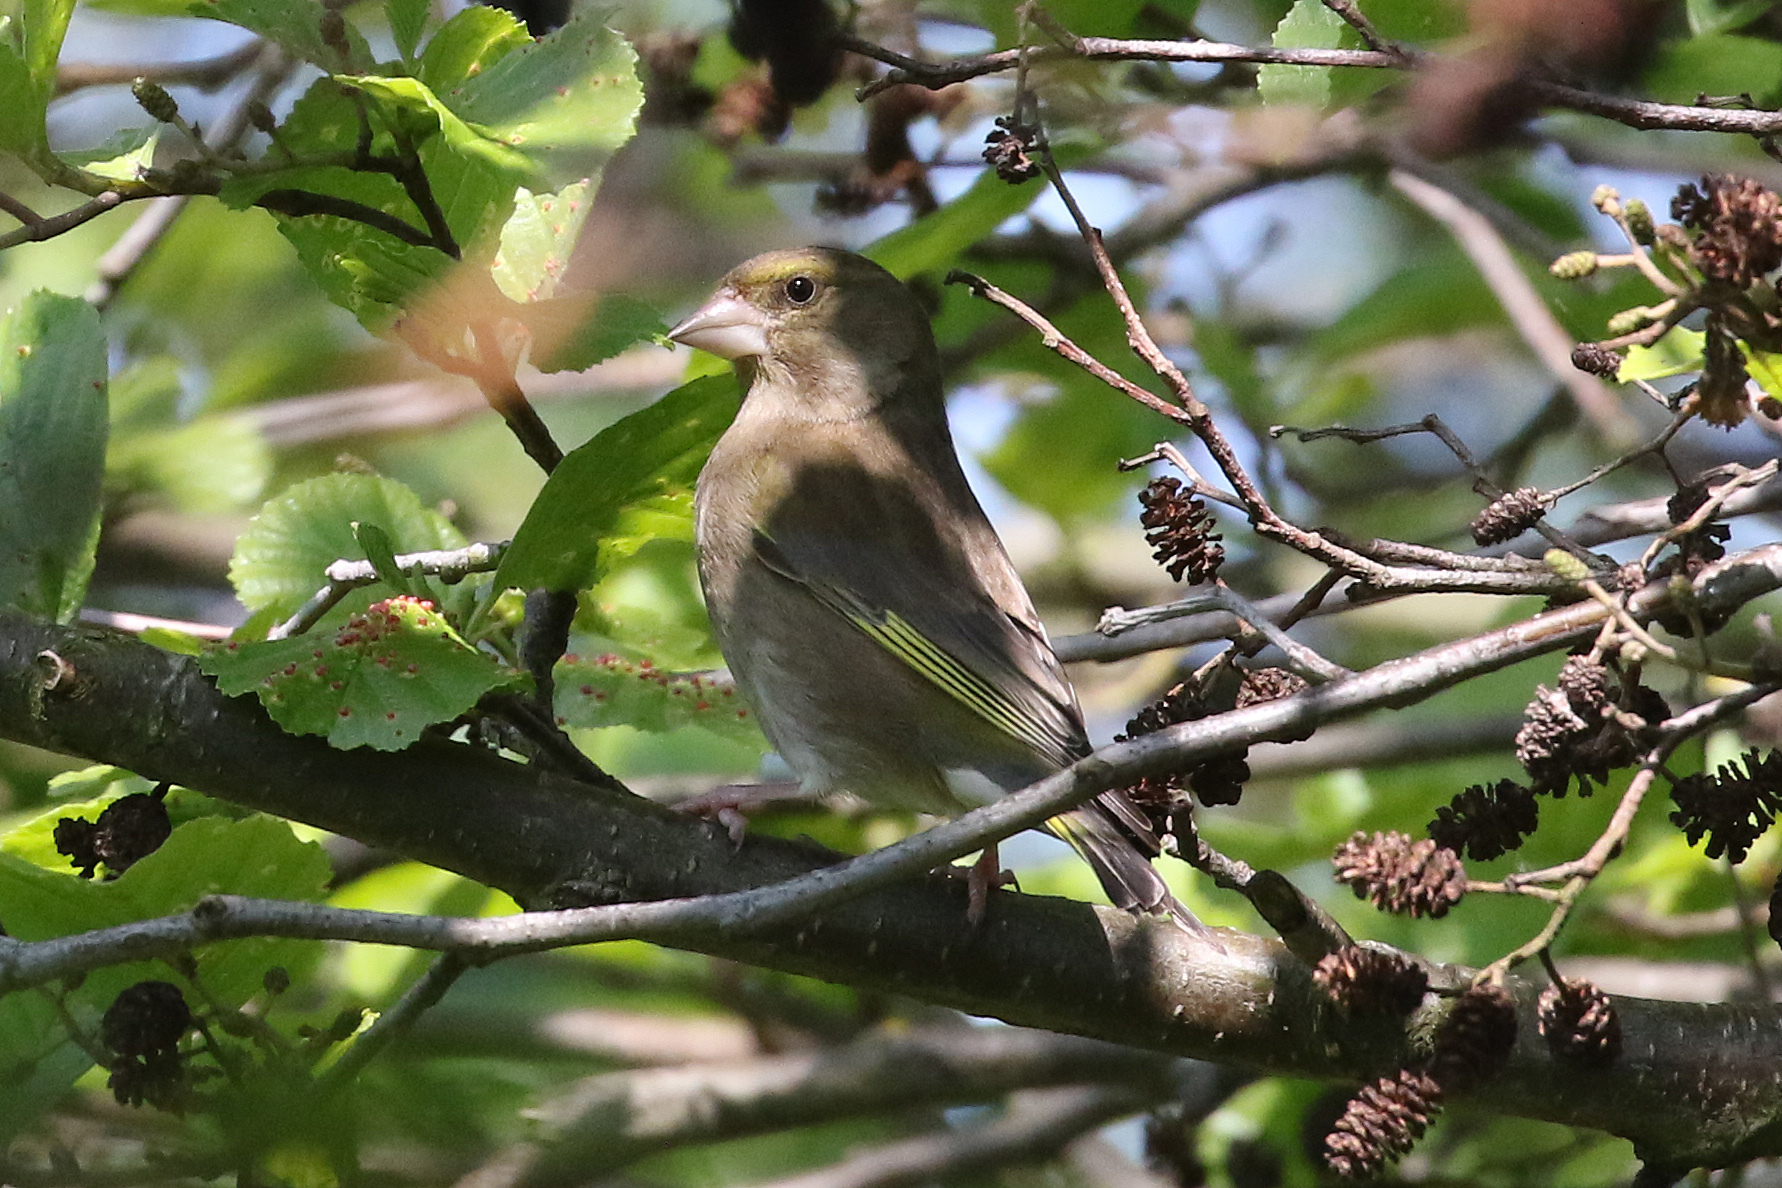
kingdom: Plantae
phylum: Tracheophyta
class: Liliopsida
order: Poales
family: Poaceae
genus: Chloris
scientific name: Chloris chloris
